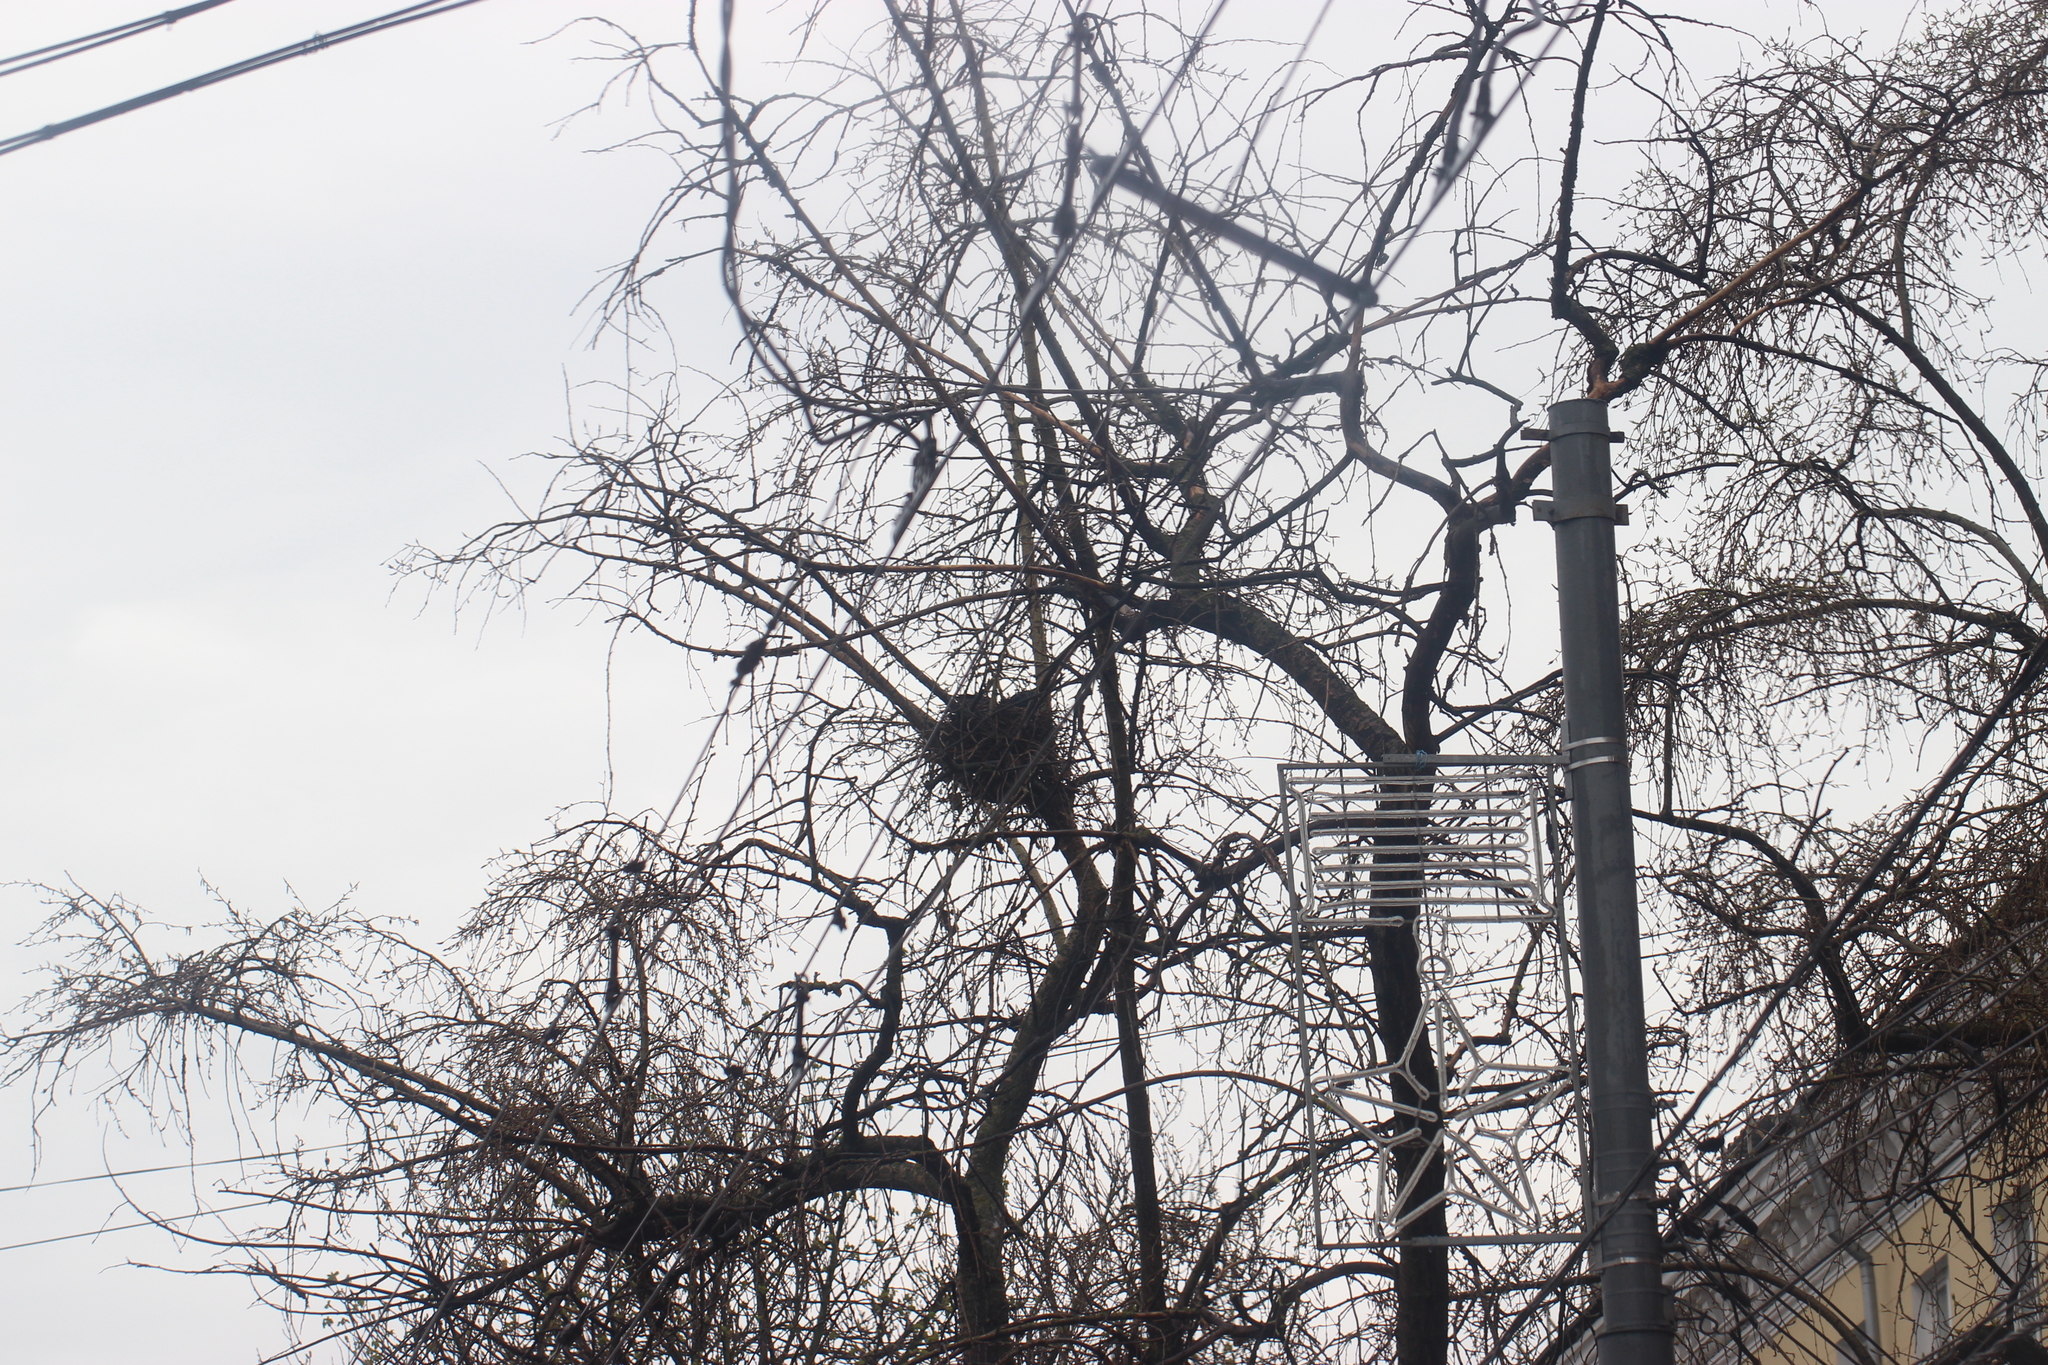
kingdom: Animalia
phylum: Chordata
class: Aves
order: Passeriformes
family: Corvidae
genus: Corvus
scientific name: Corvus cornix
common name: Hooded crow
